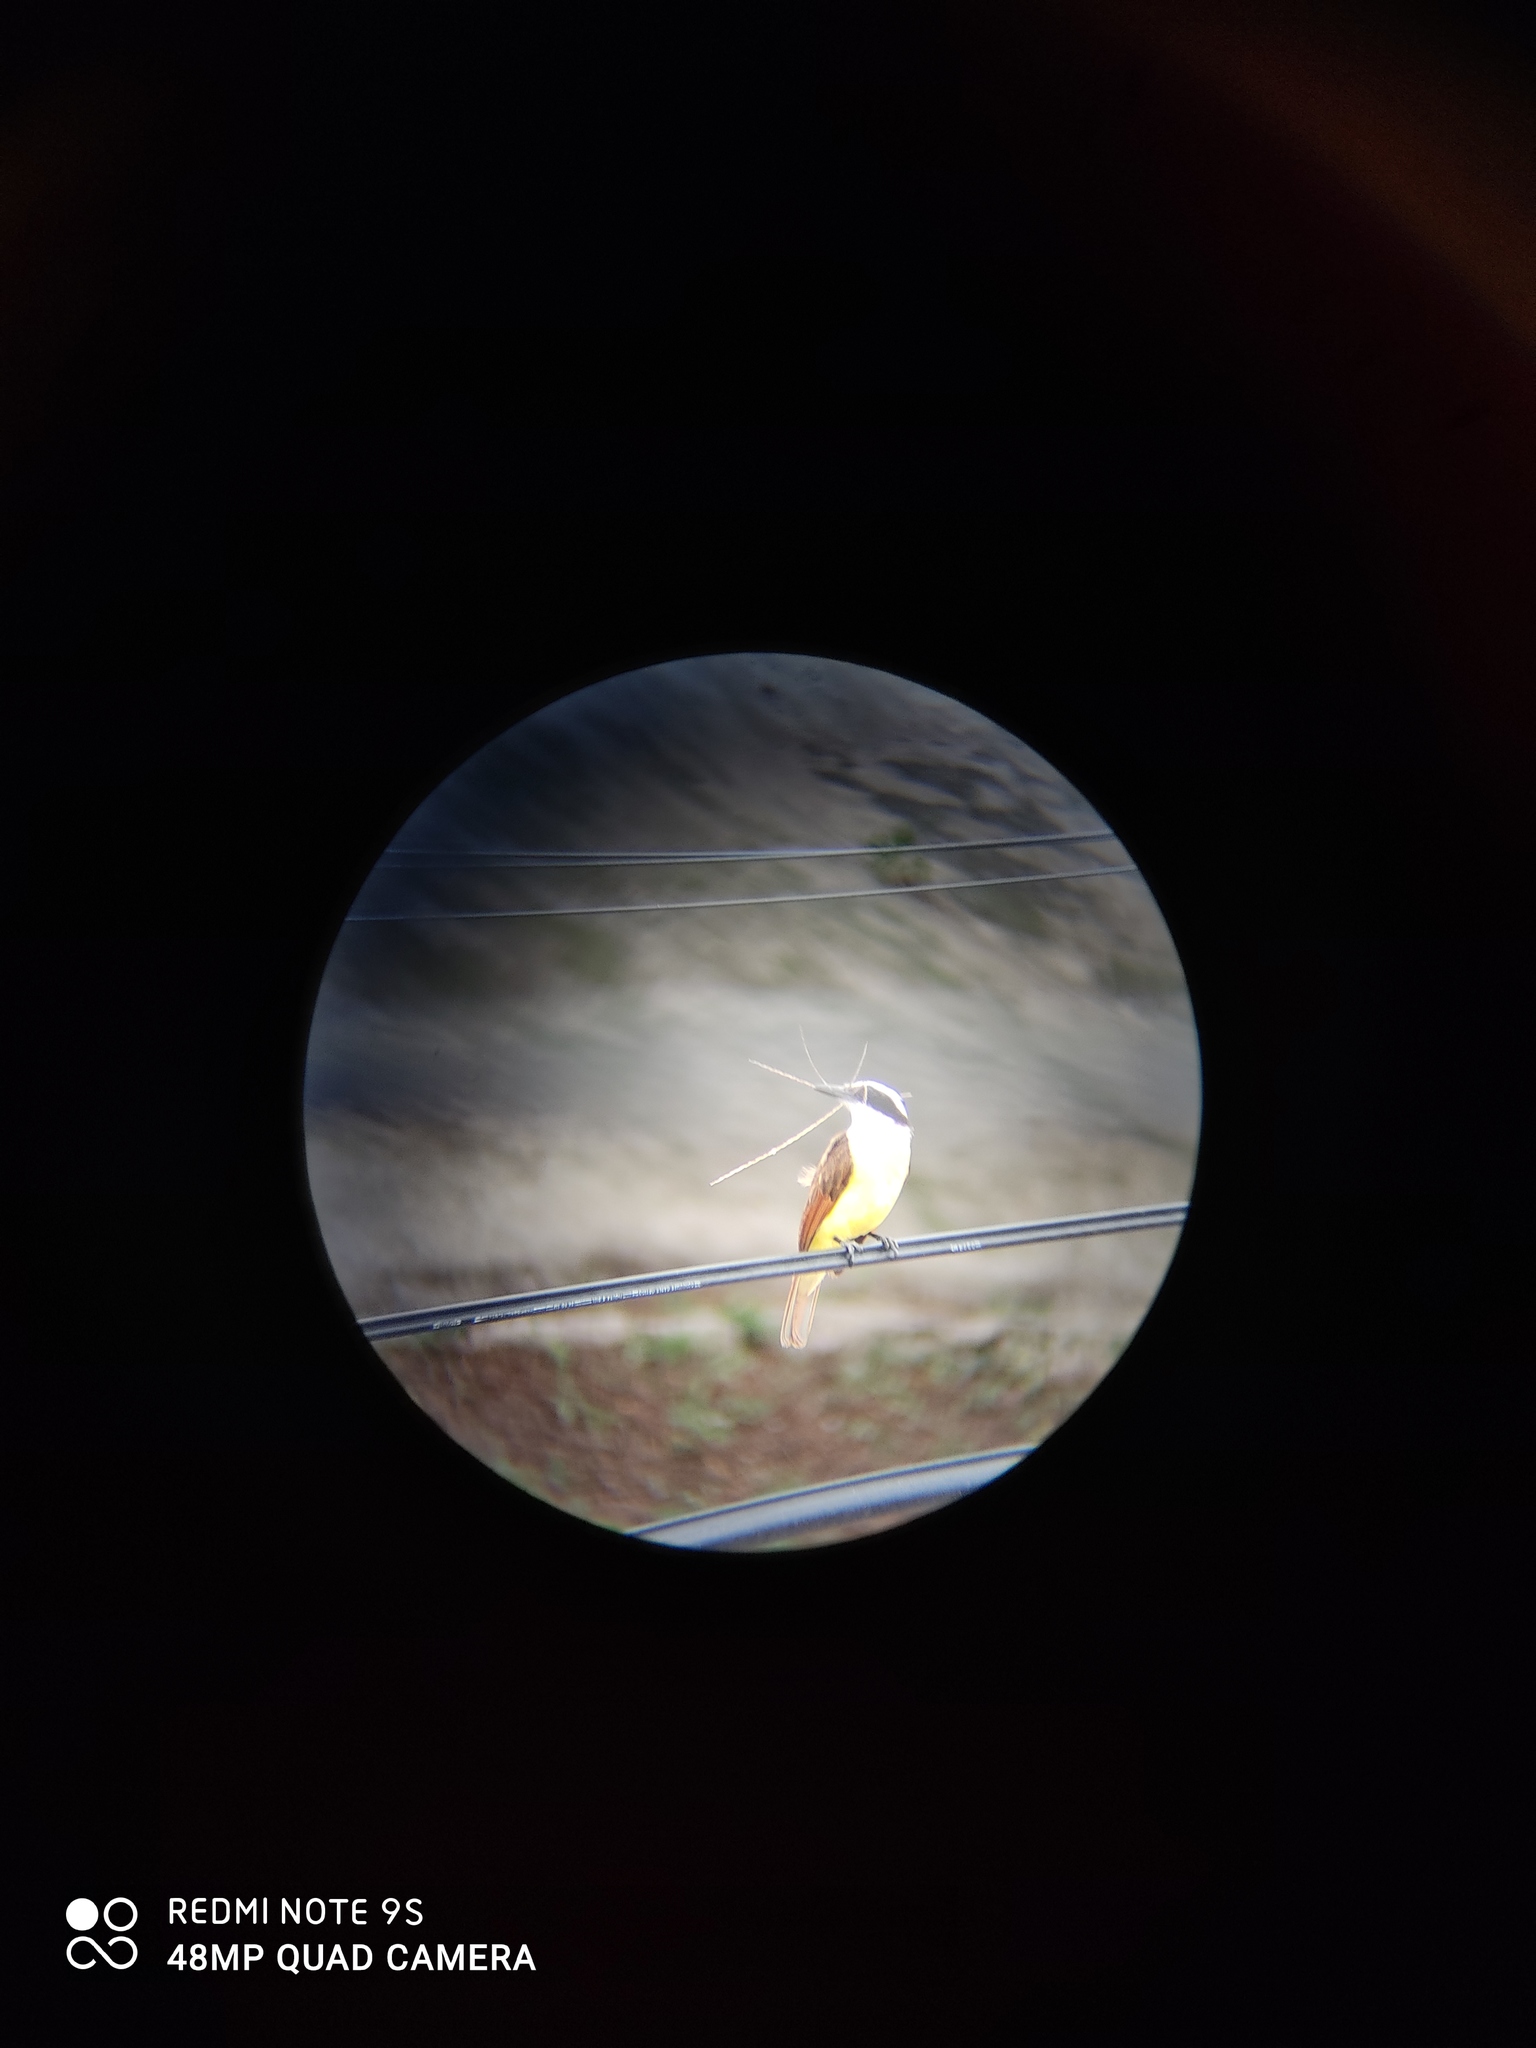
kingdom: Animalia
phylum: Chordata
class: Aves
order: Passeriformes
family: Tyrannidae
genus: Pitangus
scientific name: Pitangus sulphuratus
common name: Great kiskadee
